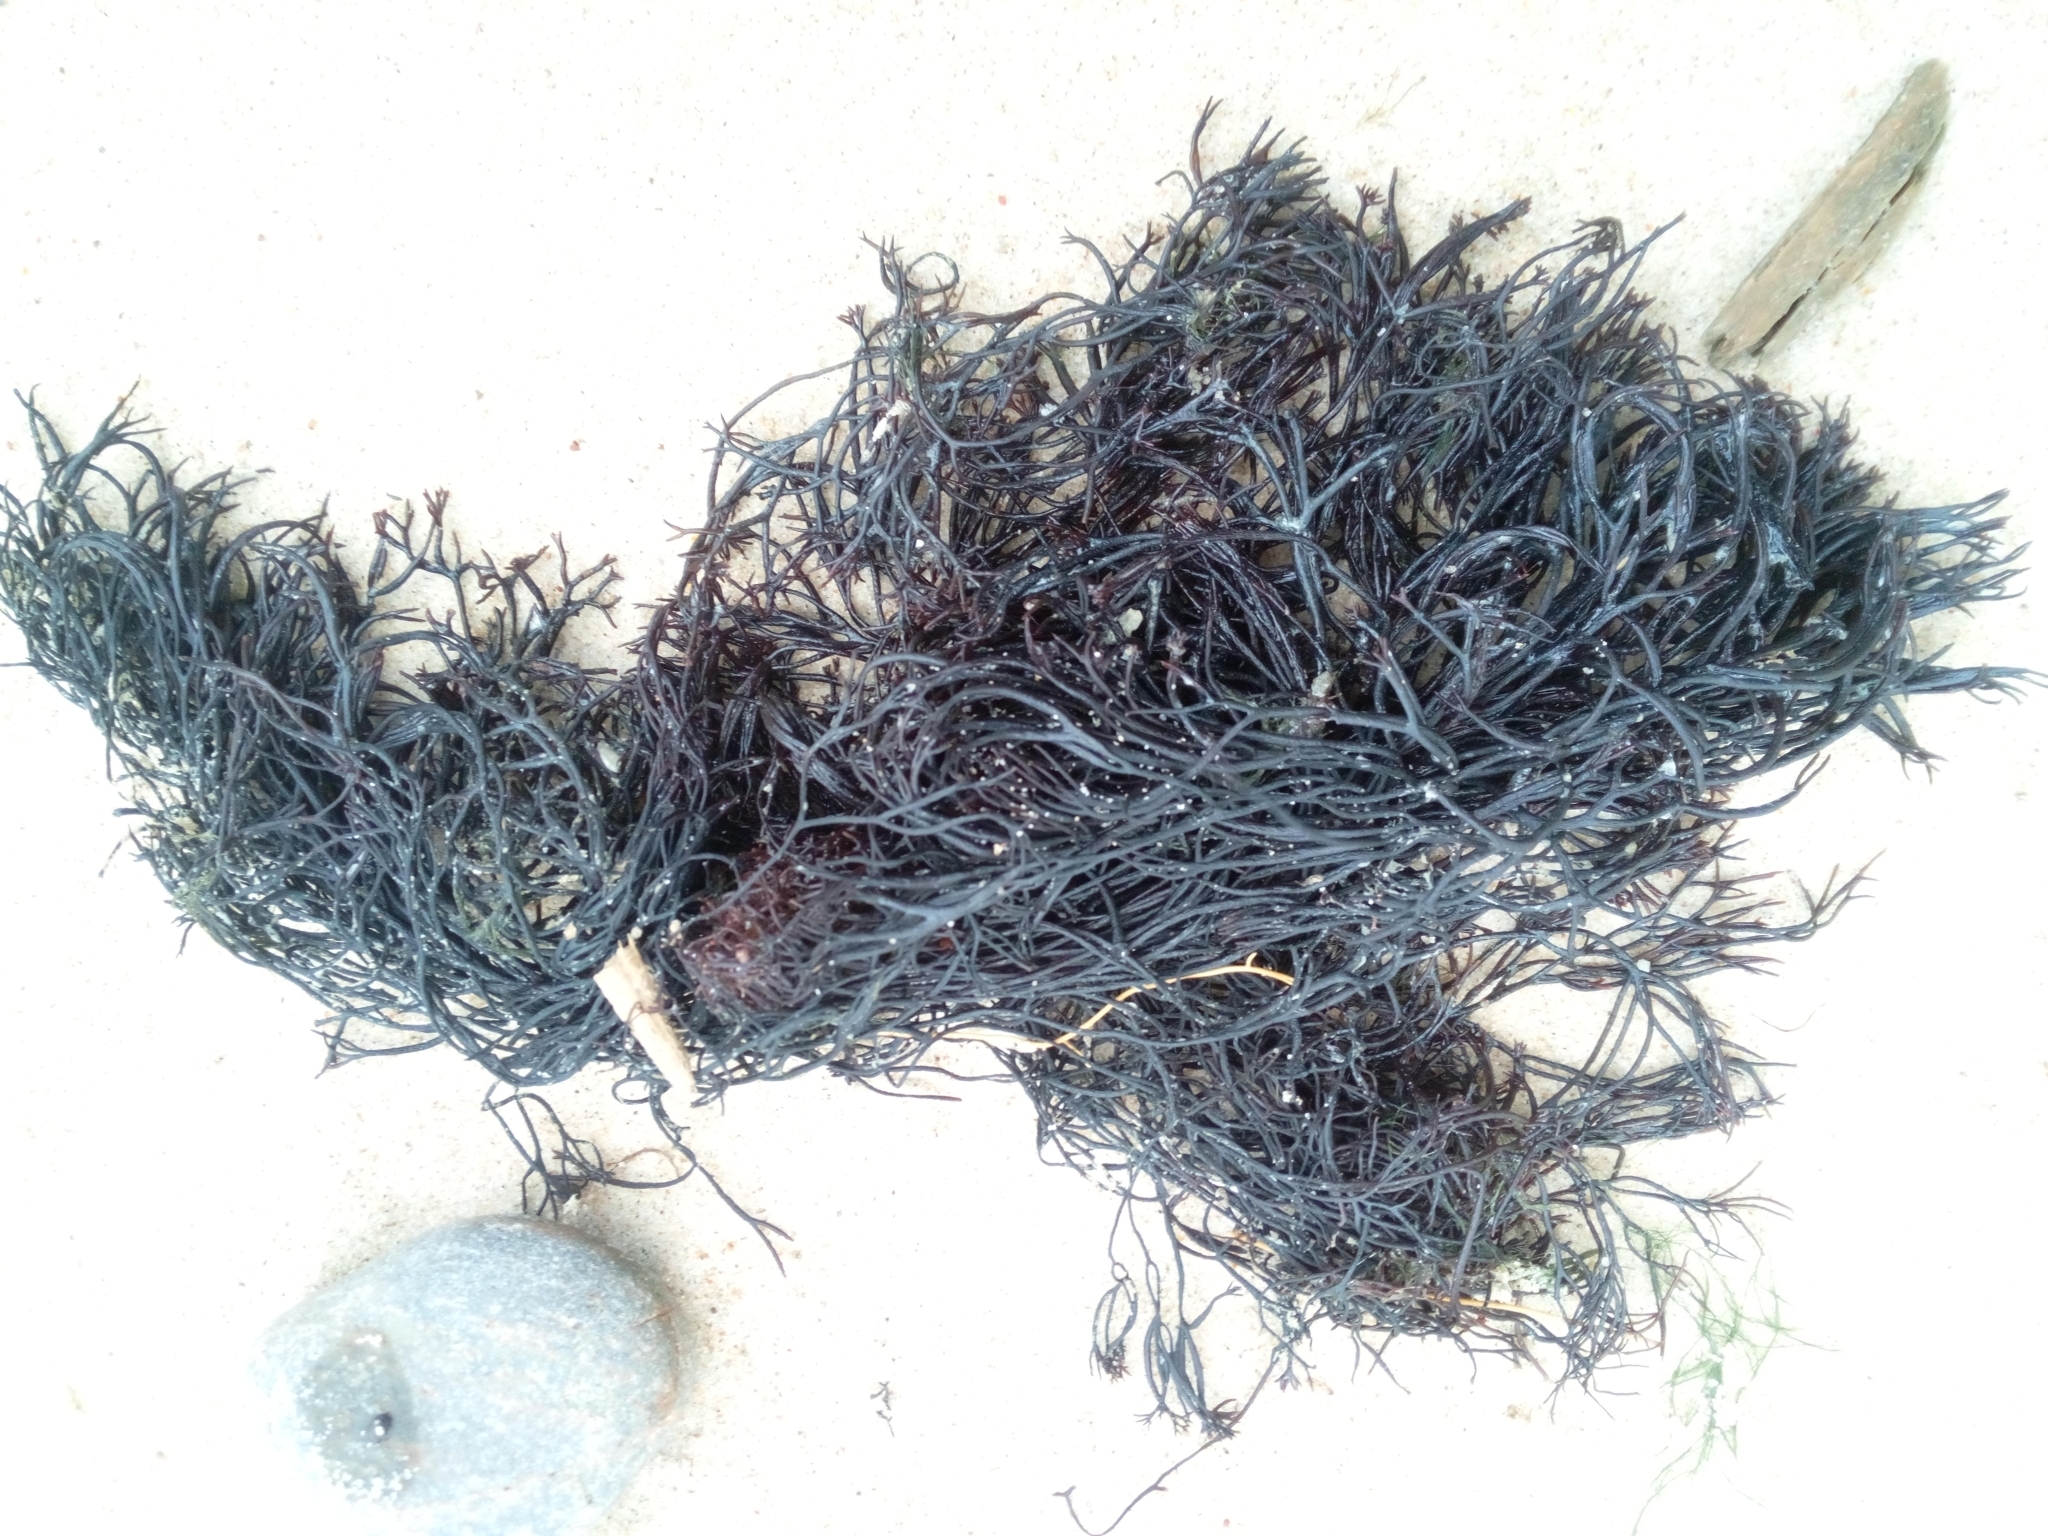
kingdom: Plantae
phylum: Rhodophyta
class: Florideophyceae
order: Gigartinales
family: Furcellariaceae
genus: Furcellaria
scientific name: Furcellaria lumbricalis
